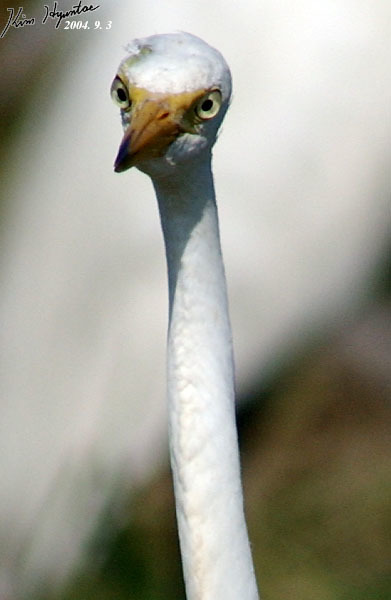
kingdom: Animalia
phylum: Chordata
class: Aves
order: Pelecaniformes
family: Ardeidae
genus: Egretta
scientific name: Egretta intermedia
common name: Intermediate egret
